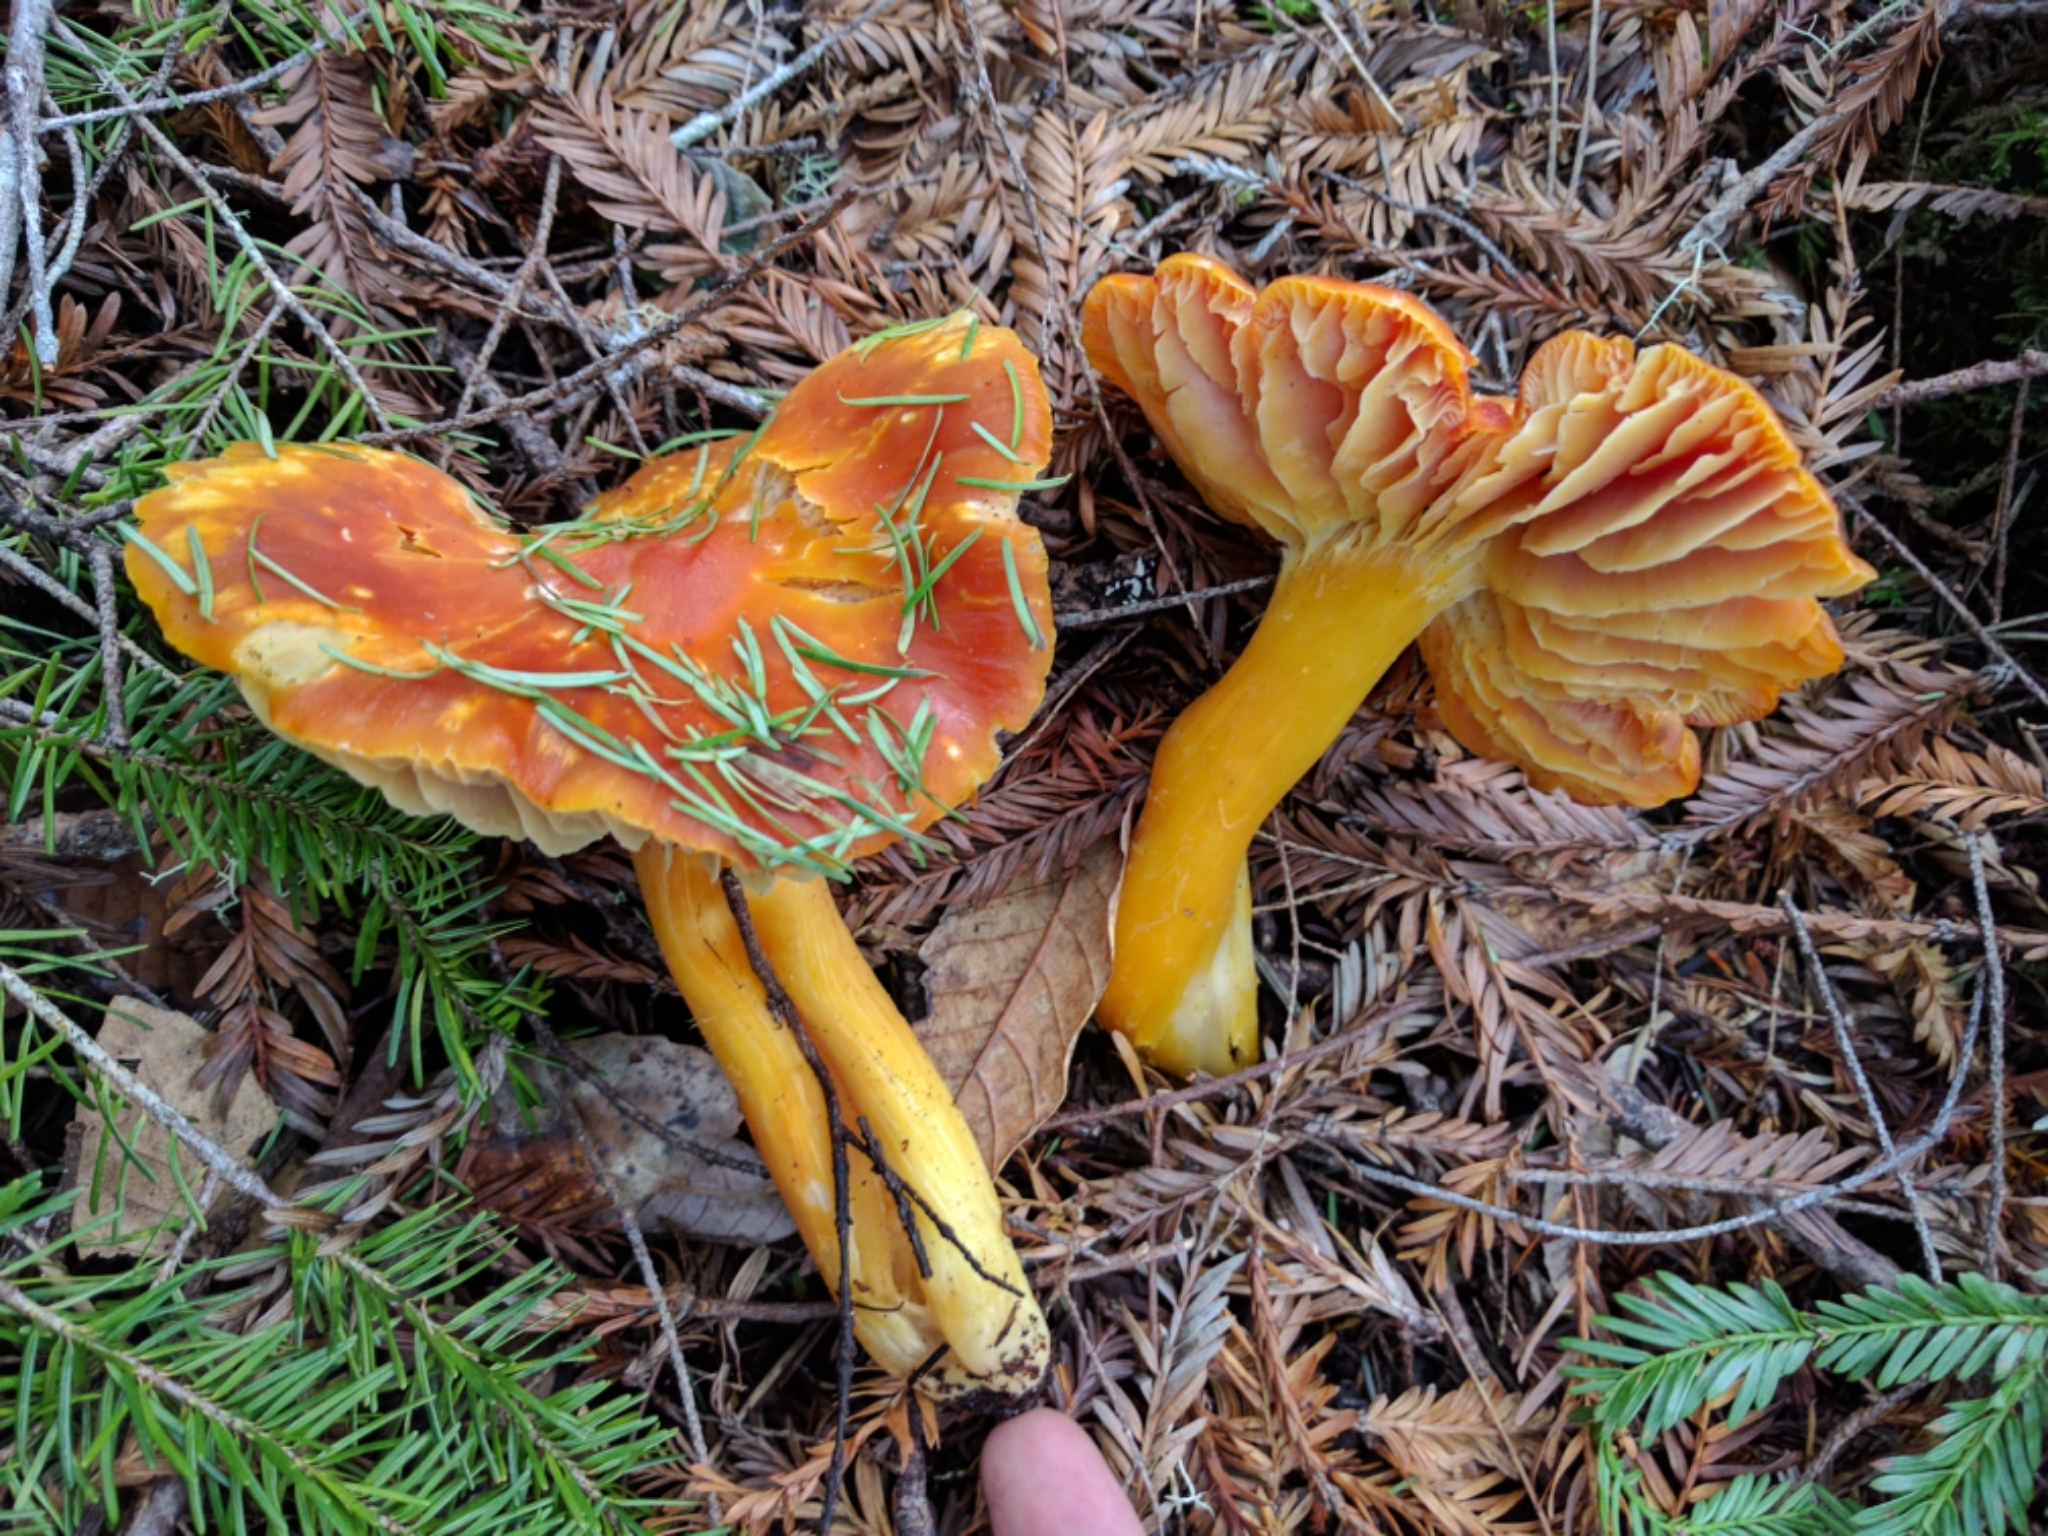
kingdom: Fungi
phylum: Basidiomycota
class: Agaricomycetes
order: Agaricales
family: Hygrophoraceae
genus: Hygrocybe
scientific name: Hygrocybe punicea
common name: Crimson waxcap
